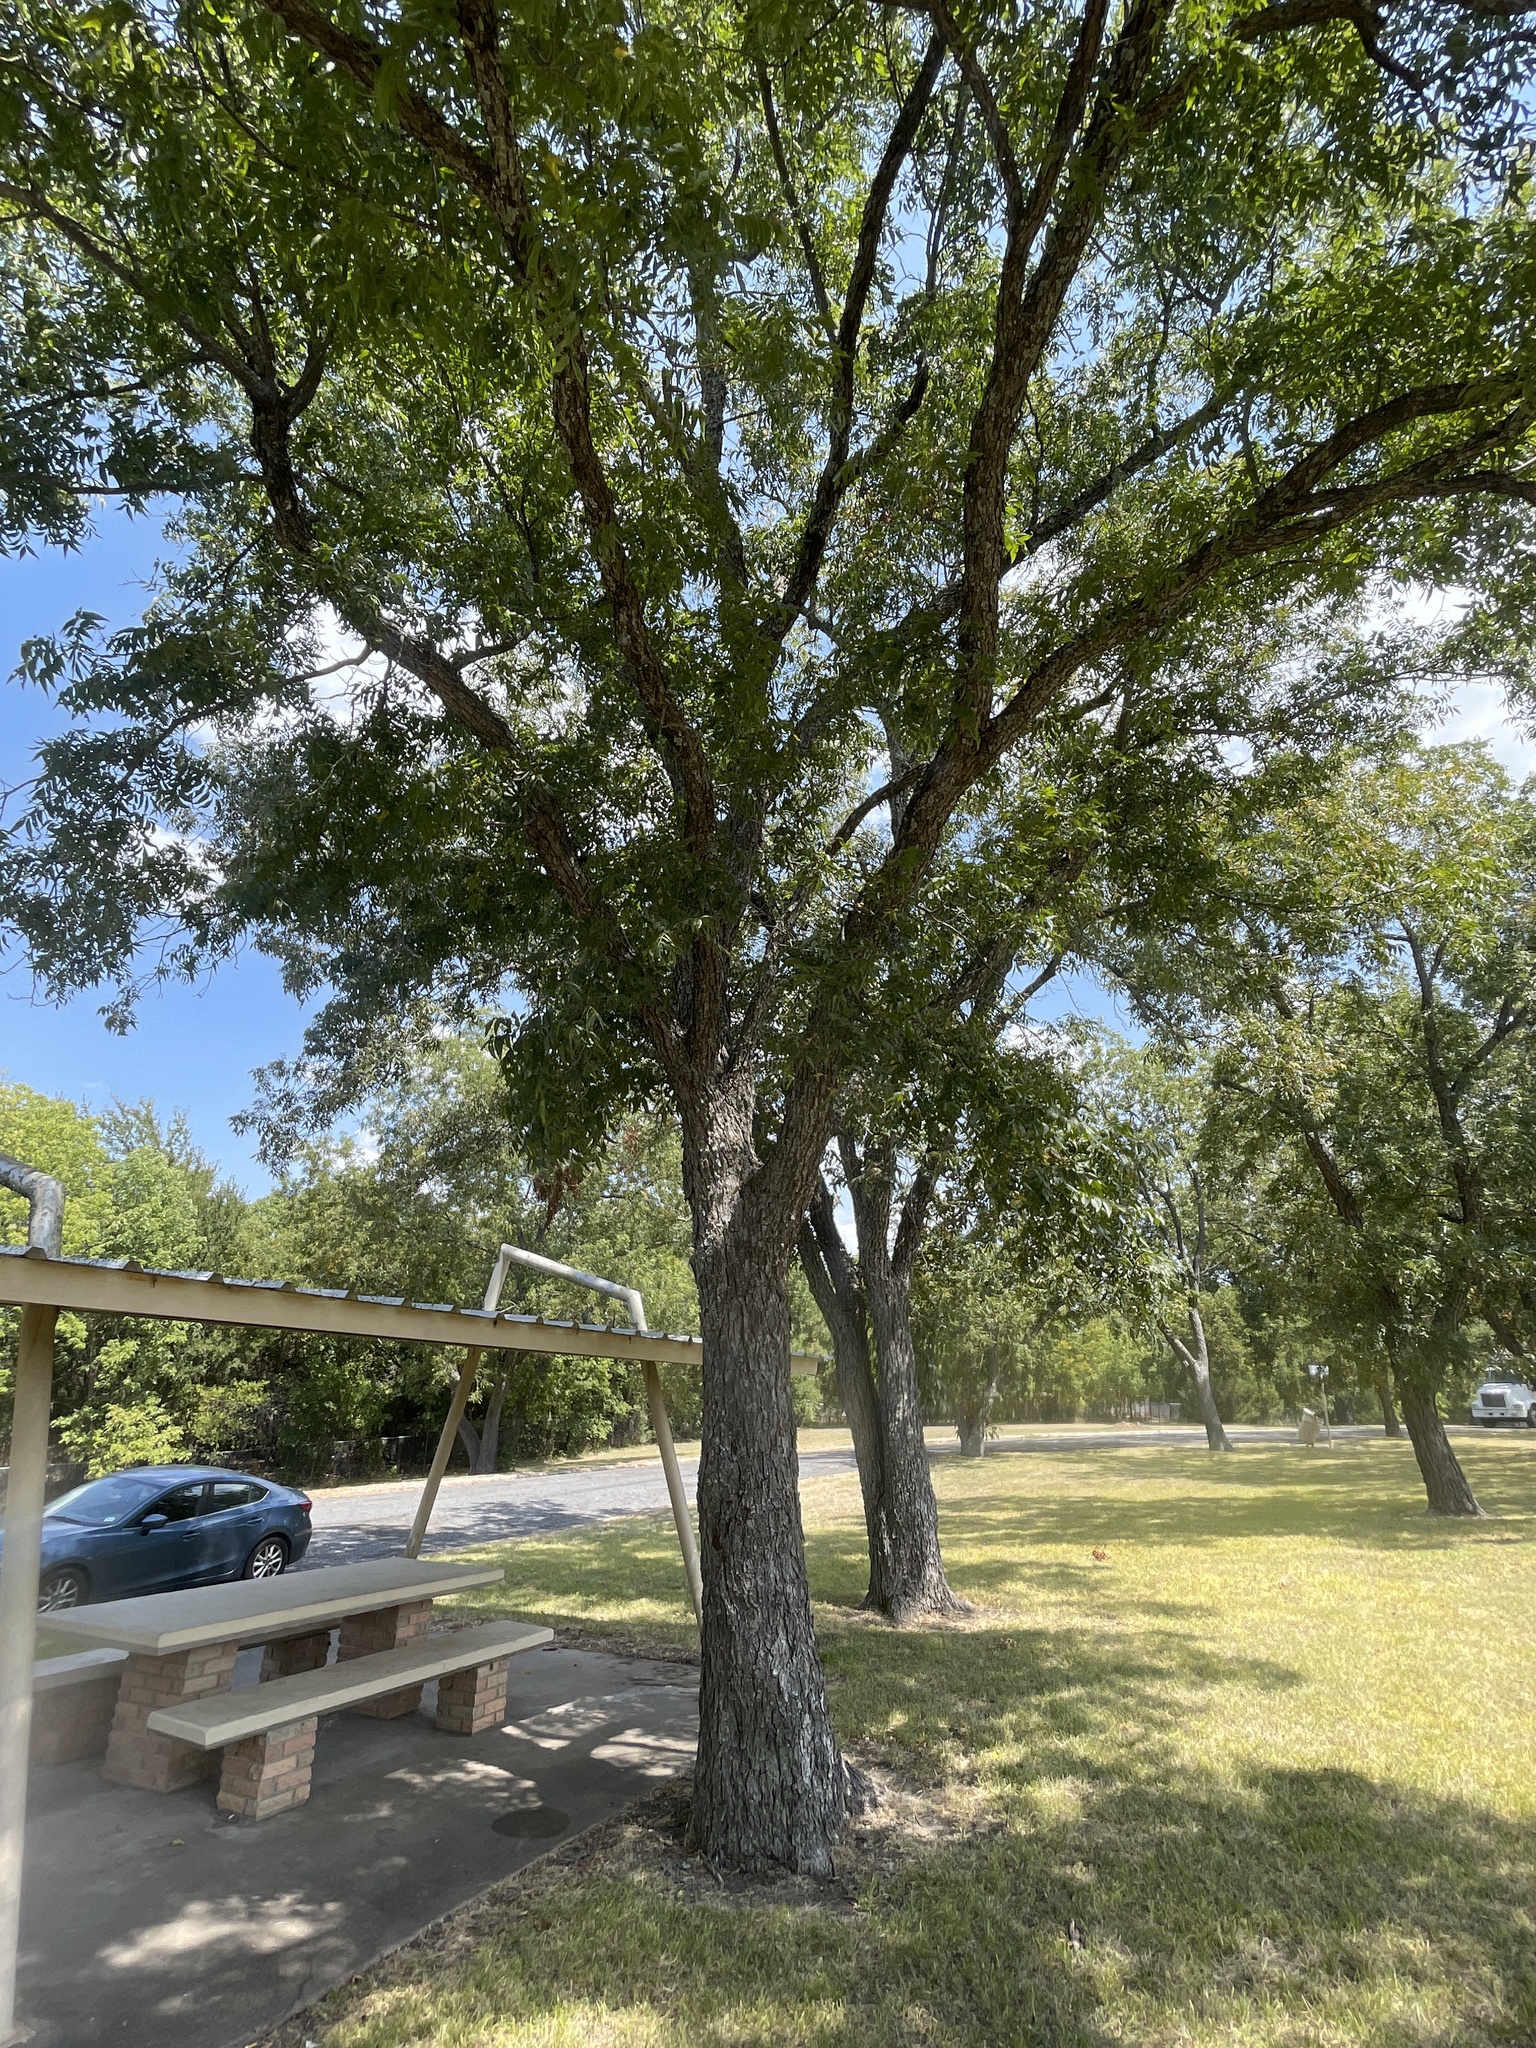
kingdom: Plantae
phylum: Tracheophyta
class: Magnoliopsida
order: Fagales
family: Juglandaceae
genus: Carya
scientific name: Carya illinoinensis
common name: Pecan
